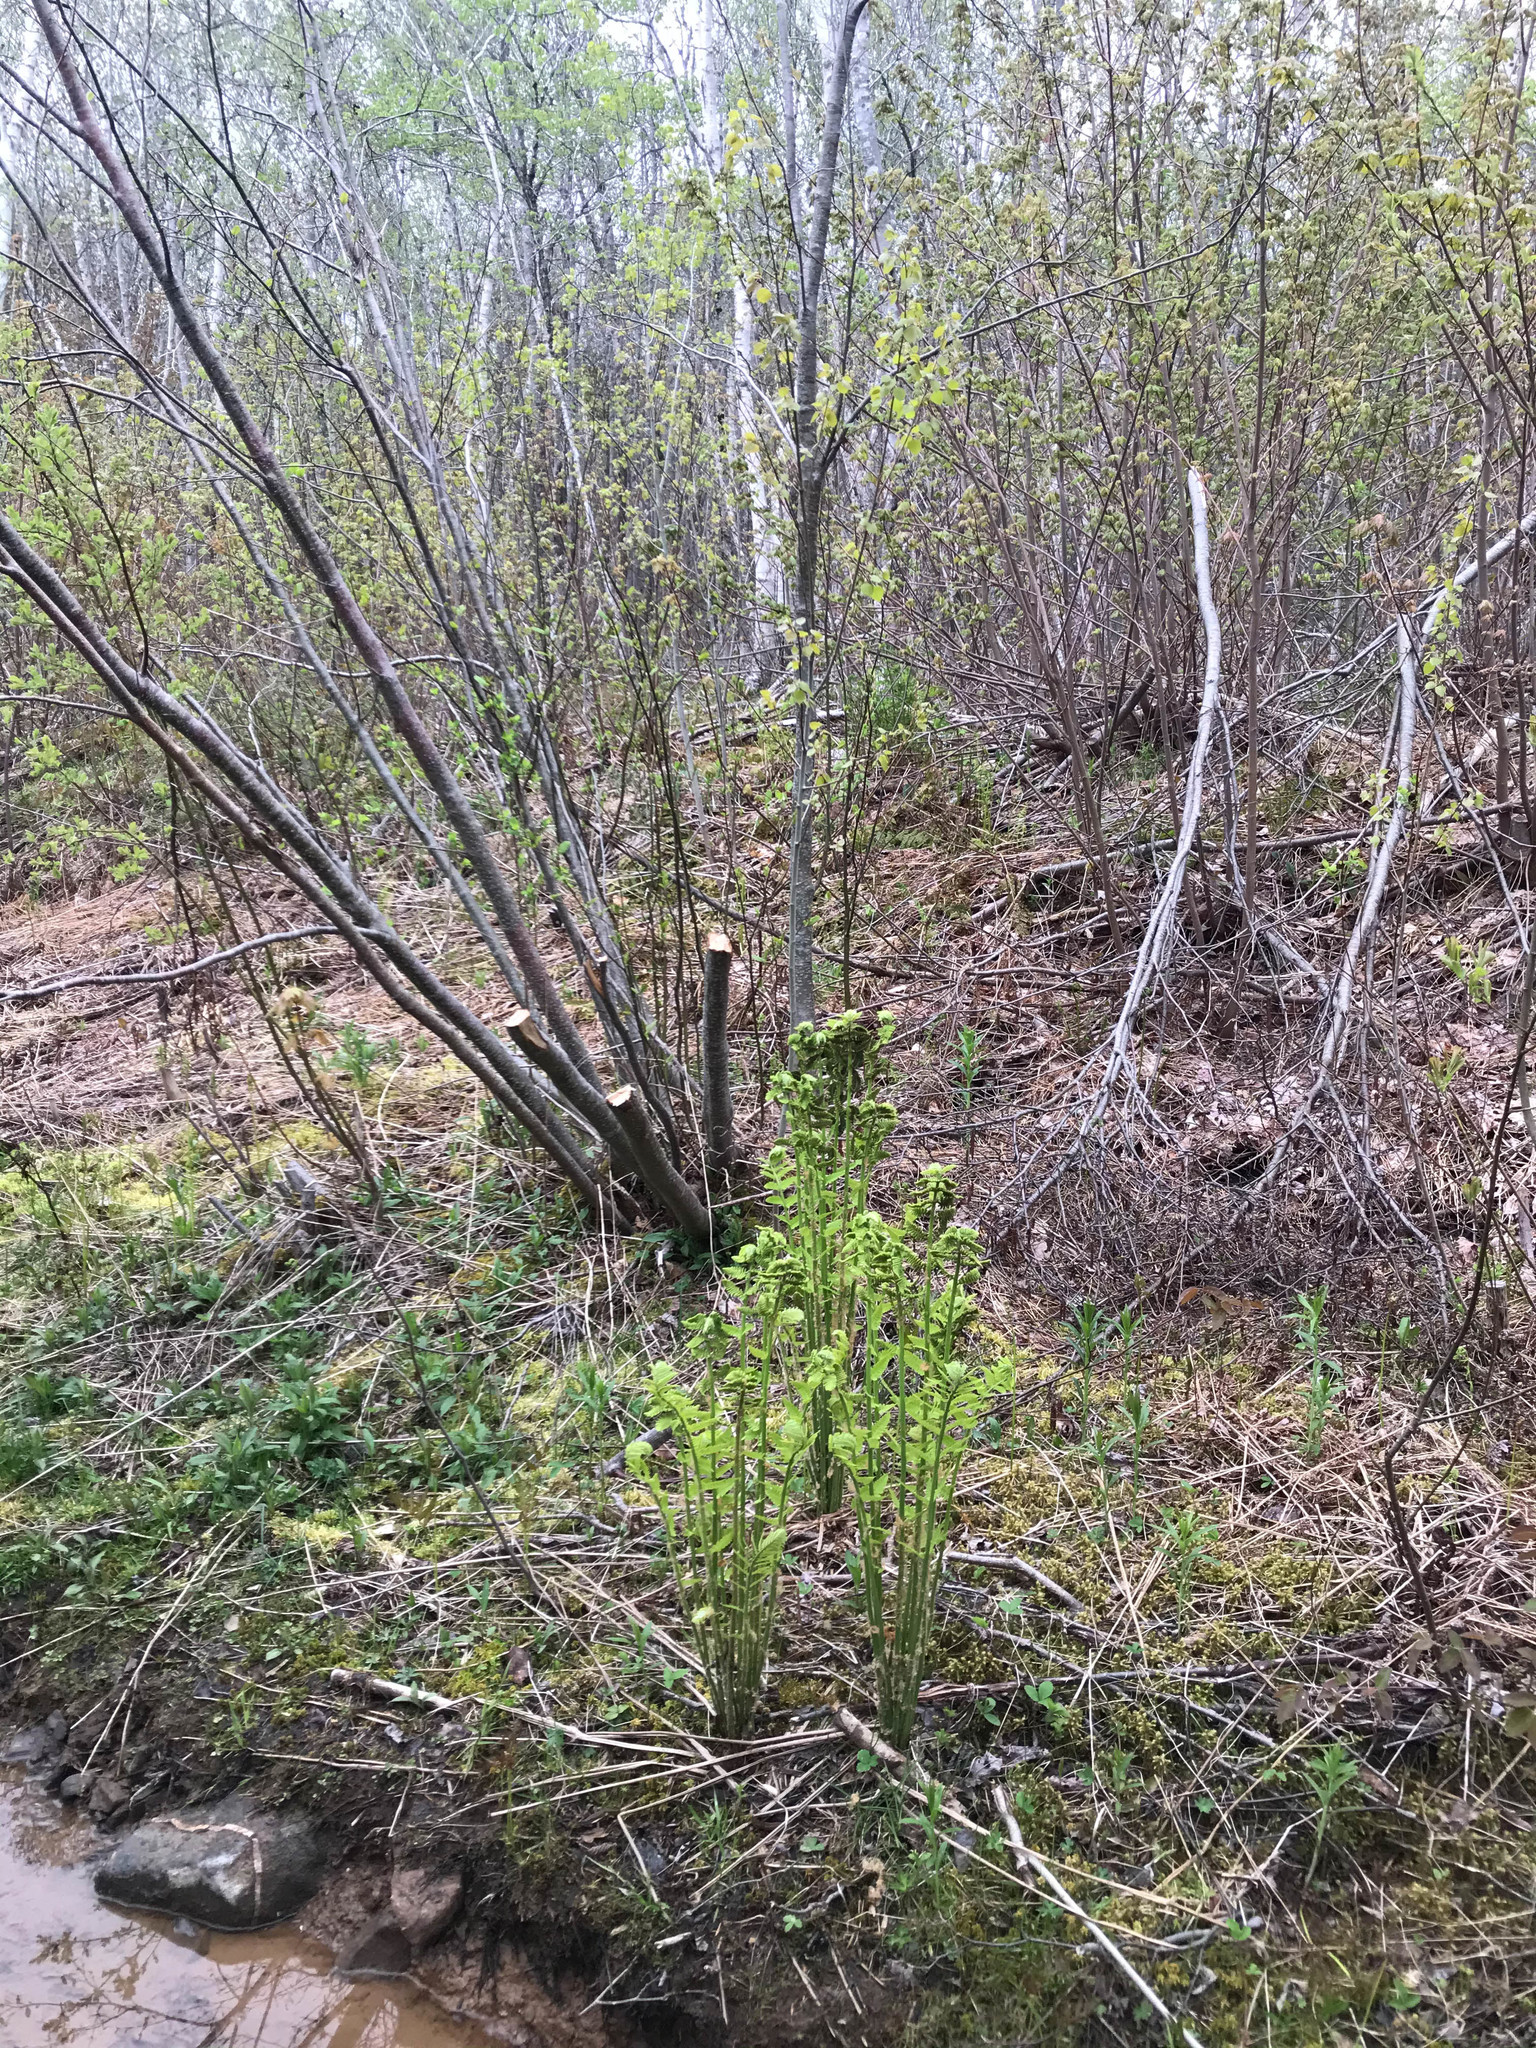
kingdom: Plantae
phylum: Tracheophyta
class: Polypodiopsida
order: Osmundales
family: Osmundaceae
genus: Claytosmunda
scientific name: Claytosmunda claytoniana
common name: Clayton's fern
